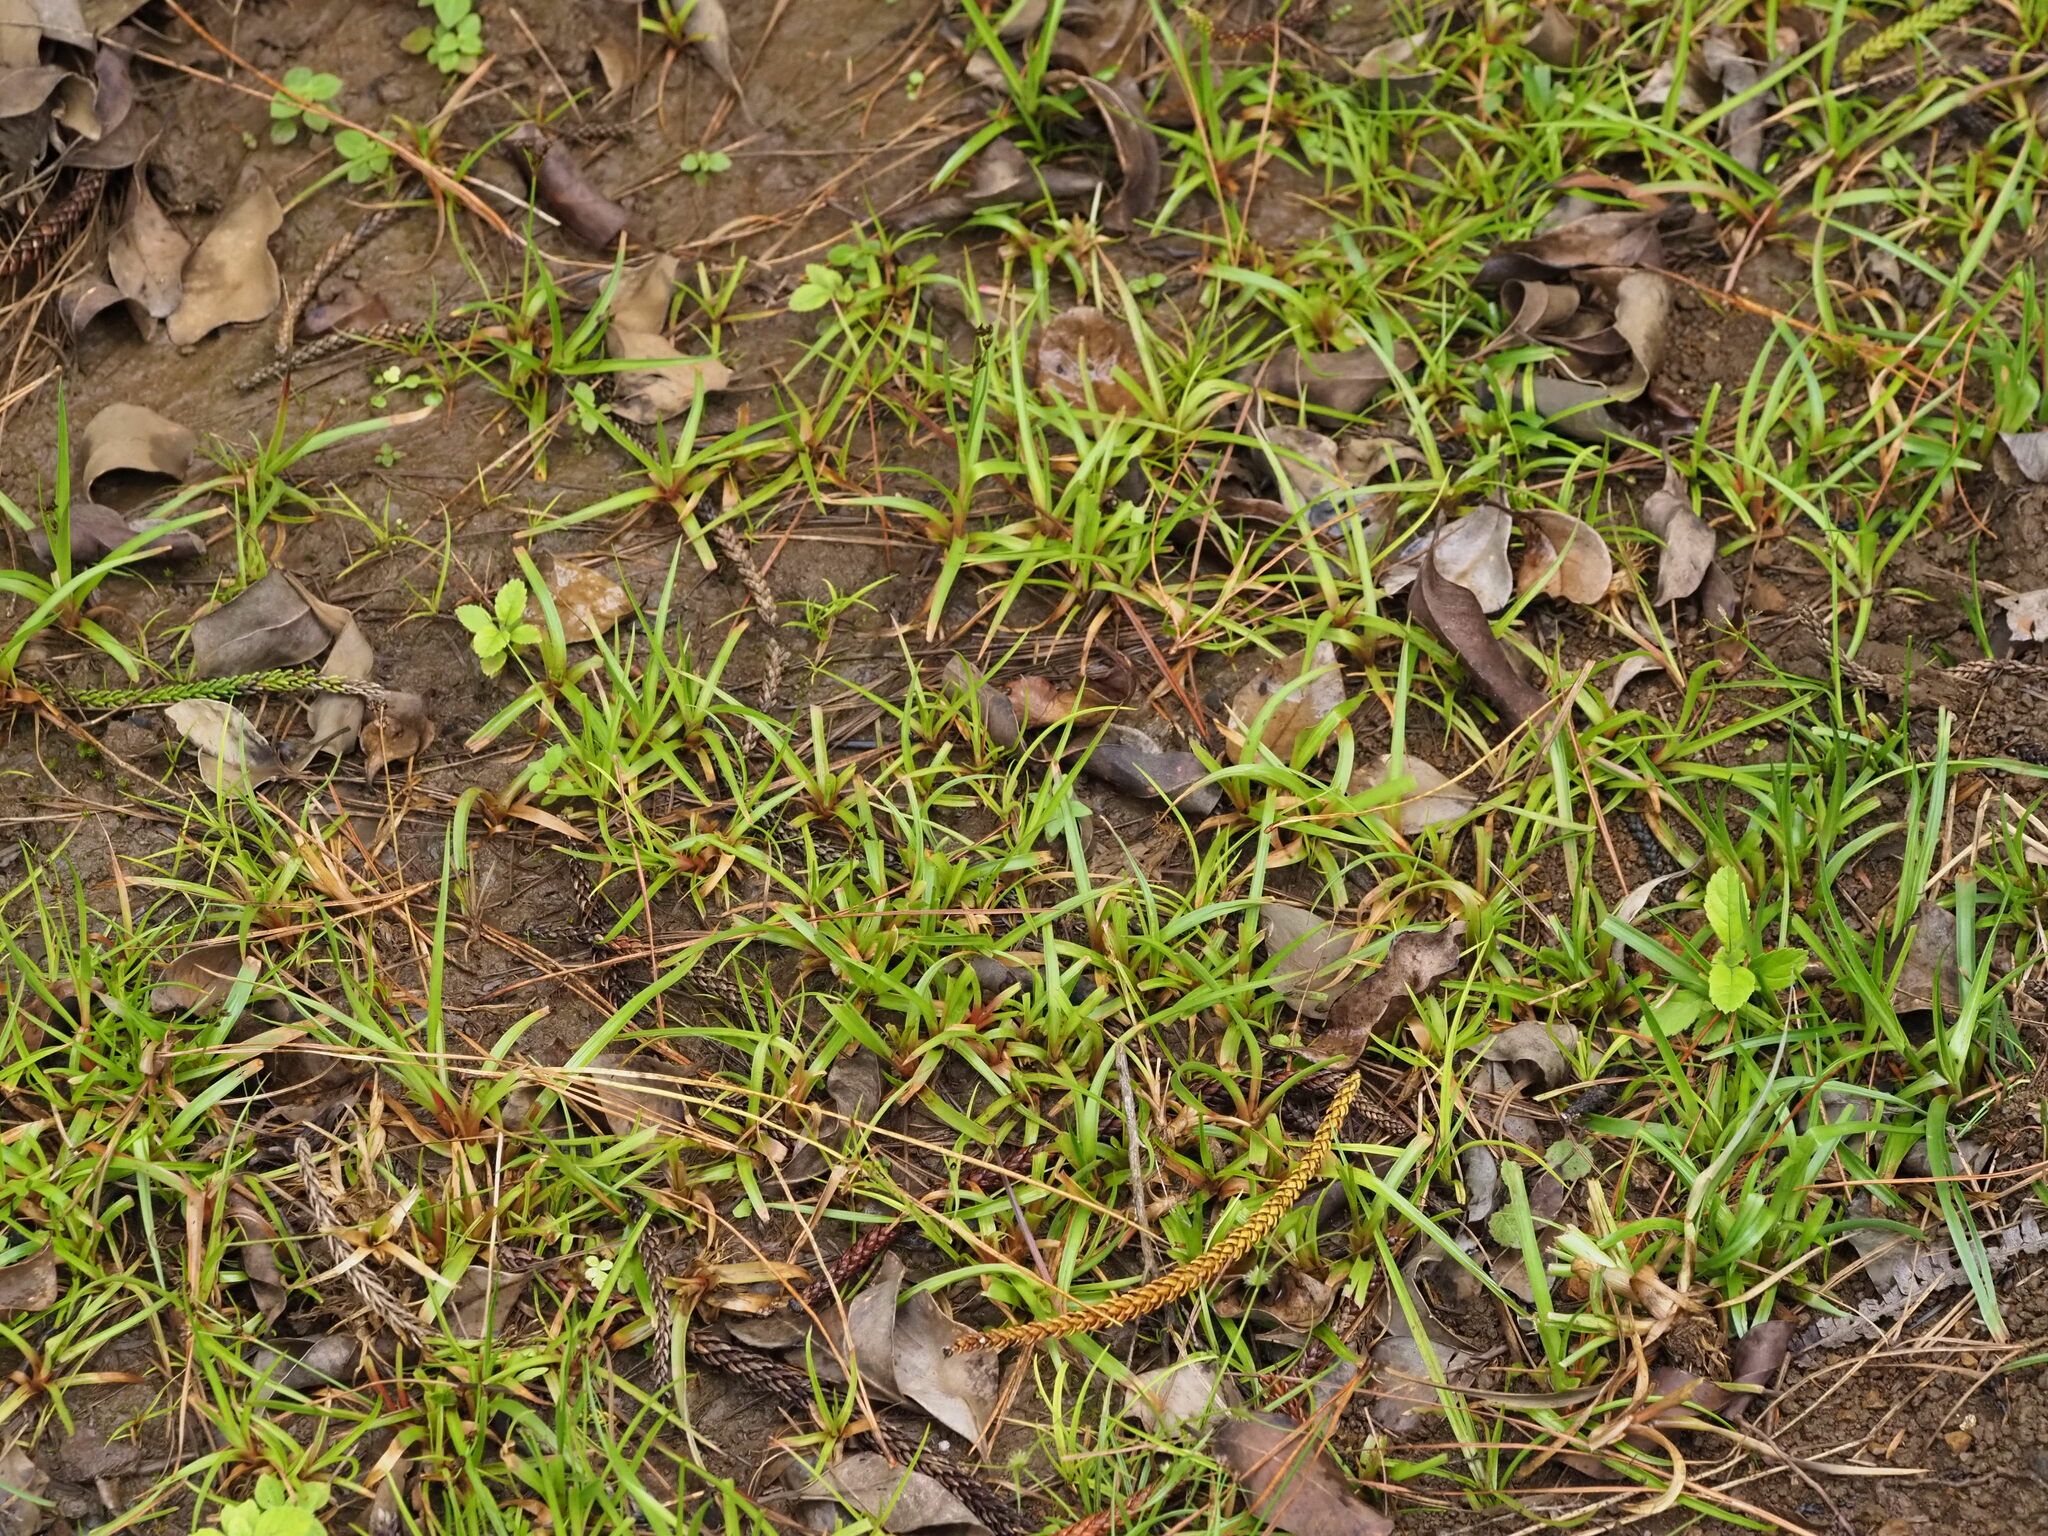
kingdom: Plantae
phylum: Tracheophyta
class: Liliopsida
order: Poales
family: Juncaceae
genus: Juncus
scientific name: Juncus planifolius
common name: Broadleaf rush
